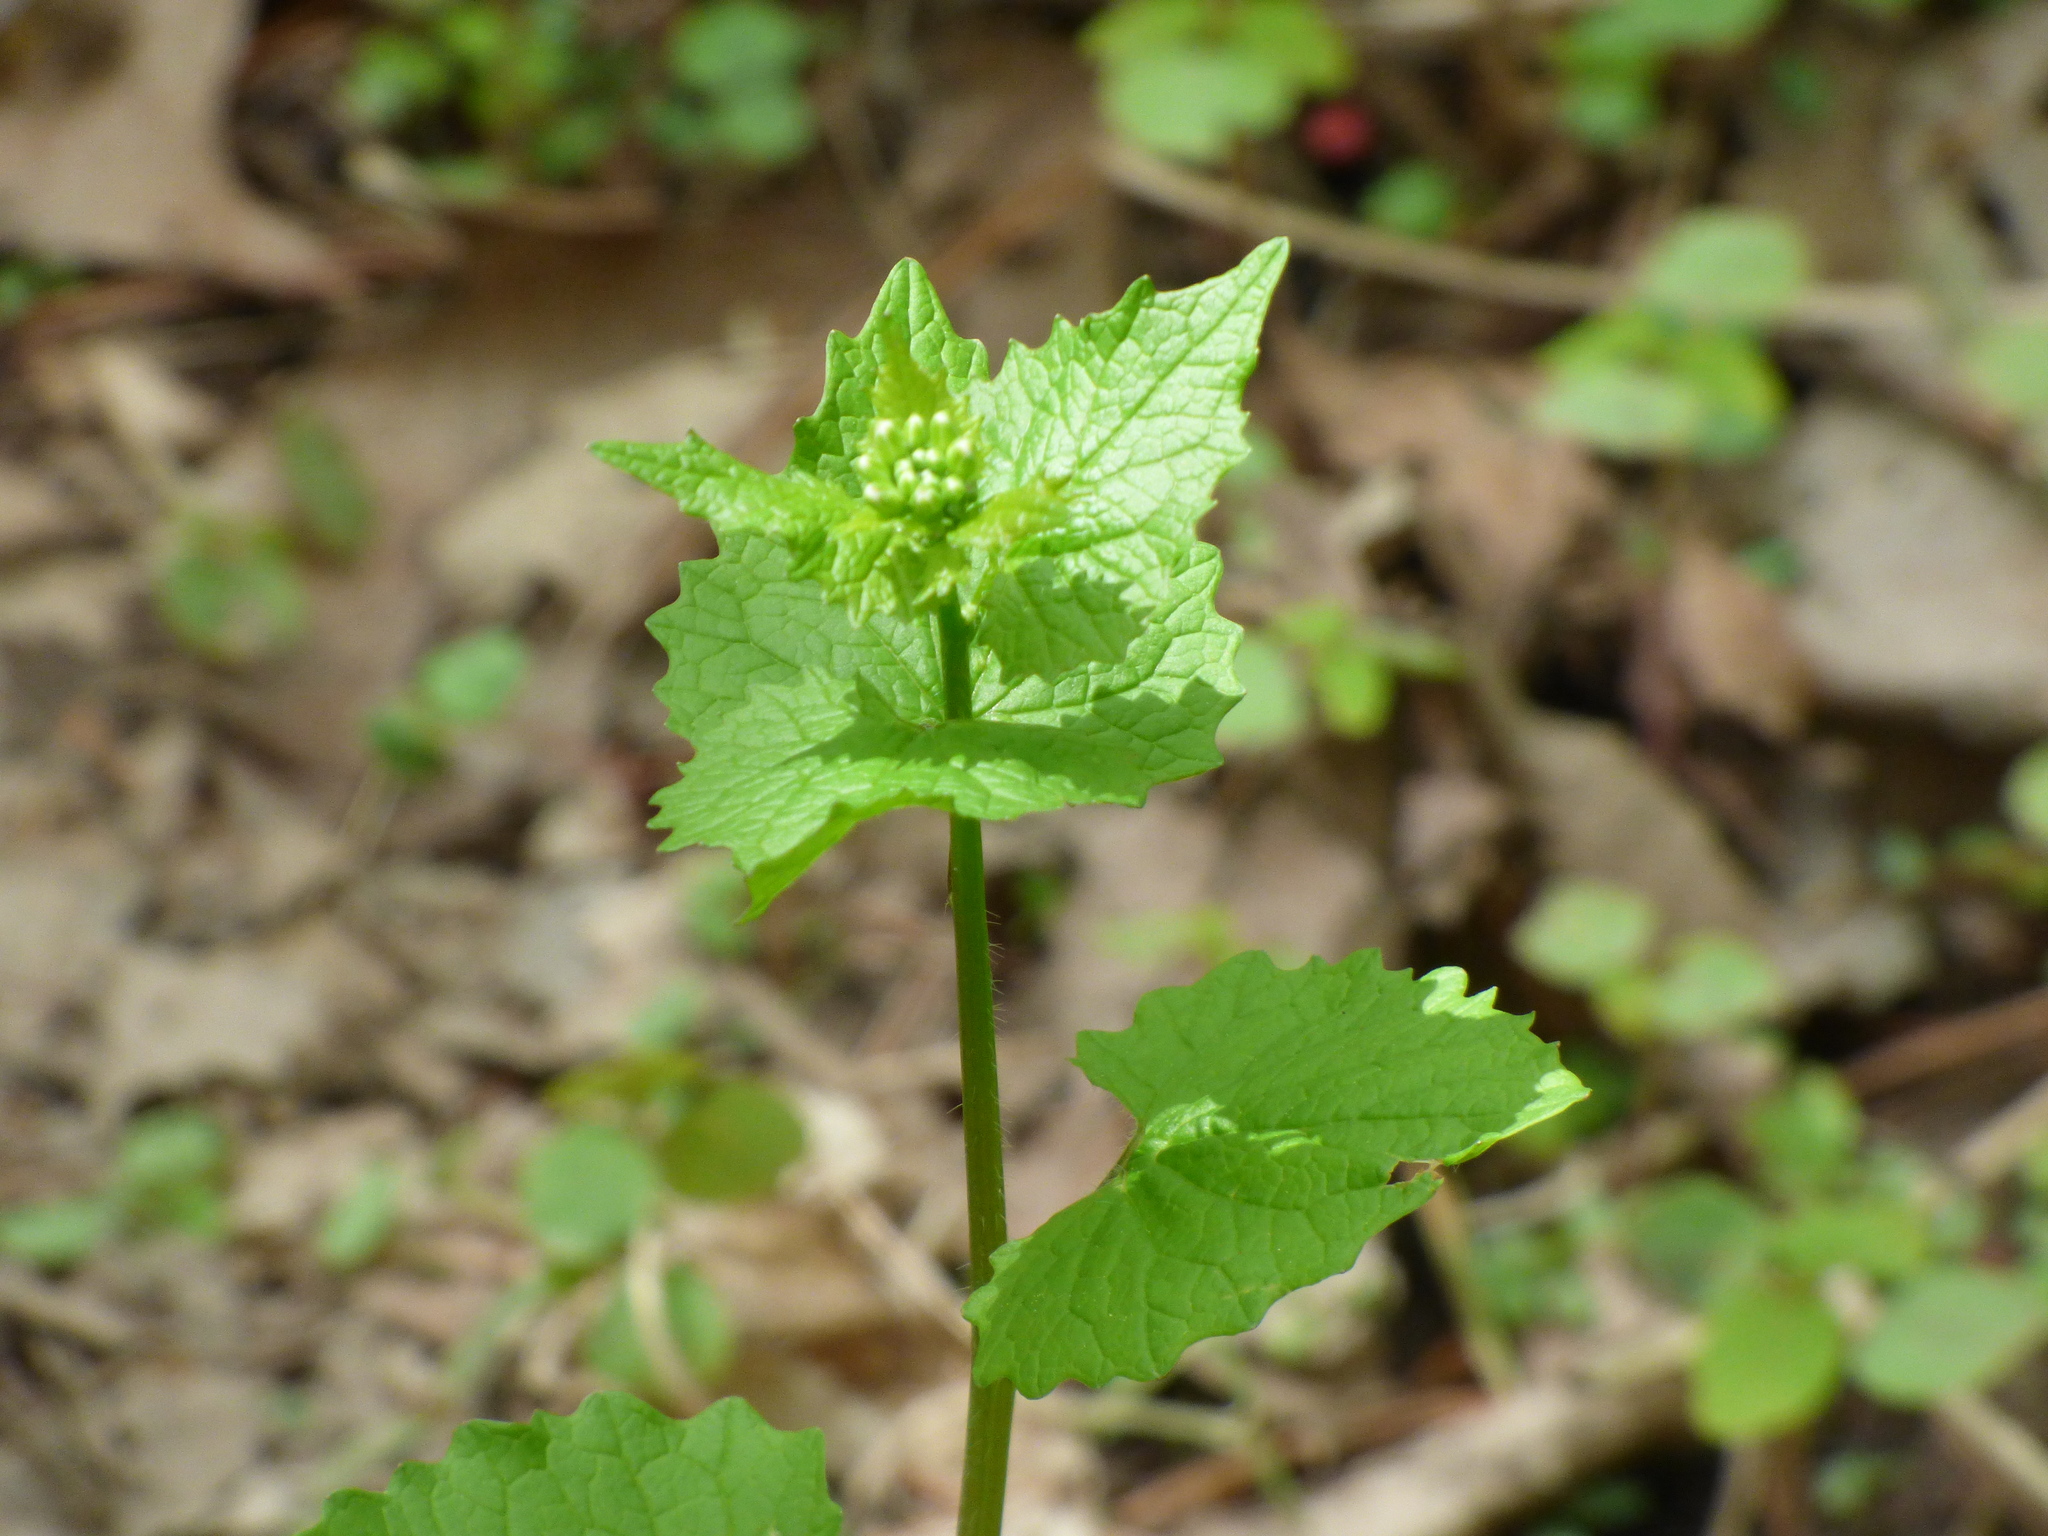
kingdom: Plantae
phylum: Tracheophyta
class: Magnoliopsida
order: Brassicales
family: Brassicaceae
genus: Alliaria
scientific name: Alliaria petiolata
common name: Garlic mustard
